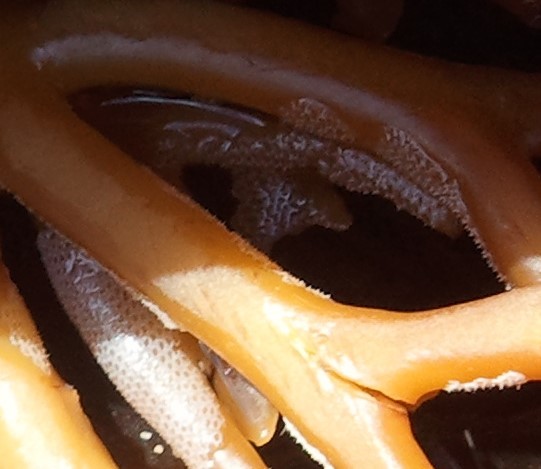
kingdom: Animalia
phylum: Bryozoa
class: Gymnolaemata
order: Cheilostomatida
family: Membraniporidae
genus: Membranipora
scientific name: Membranipora membranacea
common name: Sea mat
